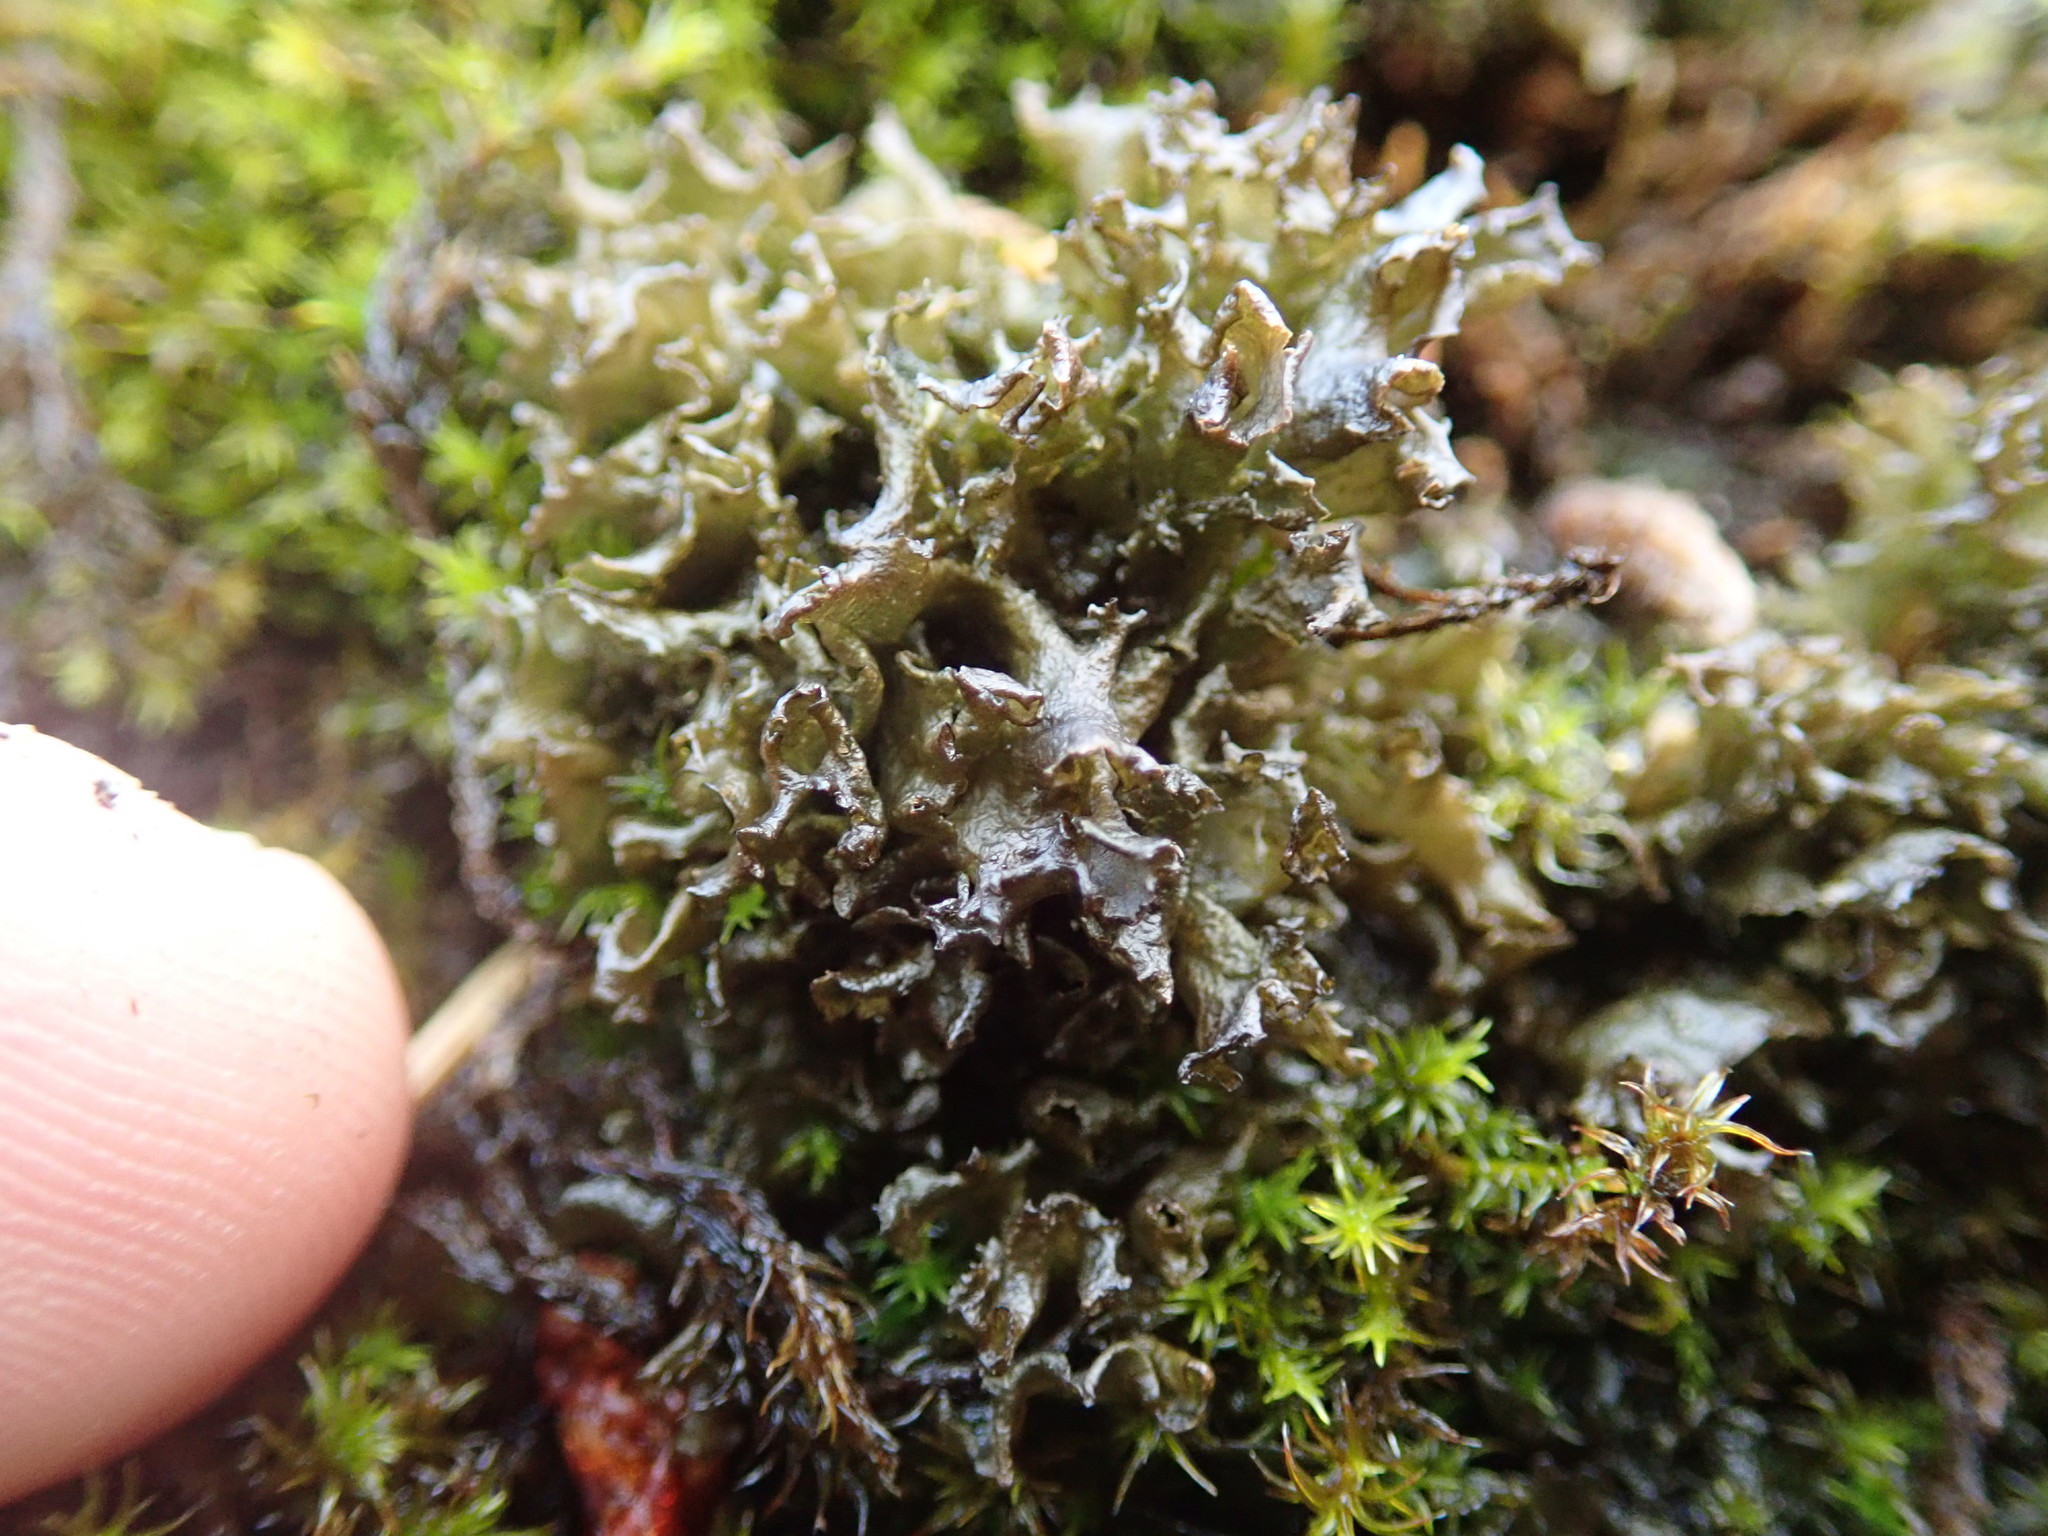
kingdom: Fungi
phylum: Ascomycota
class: Lecanoromycetes
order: Peltigerales
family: Collemataceae
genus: Scytinium
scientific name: Scytinium palmatum
